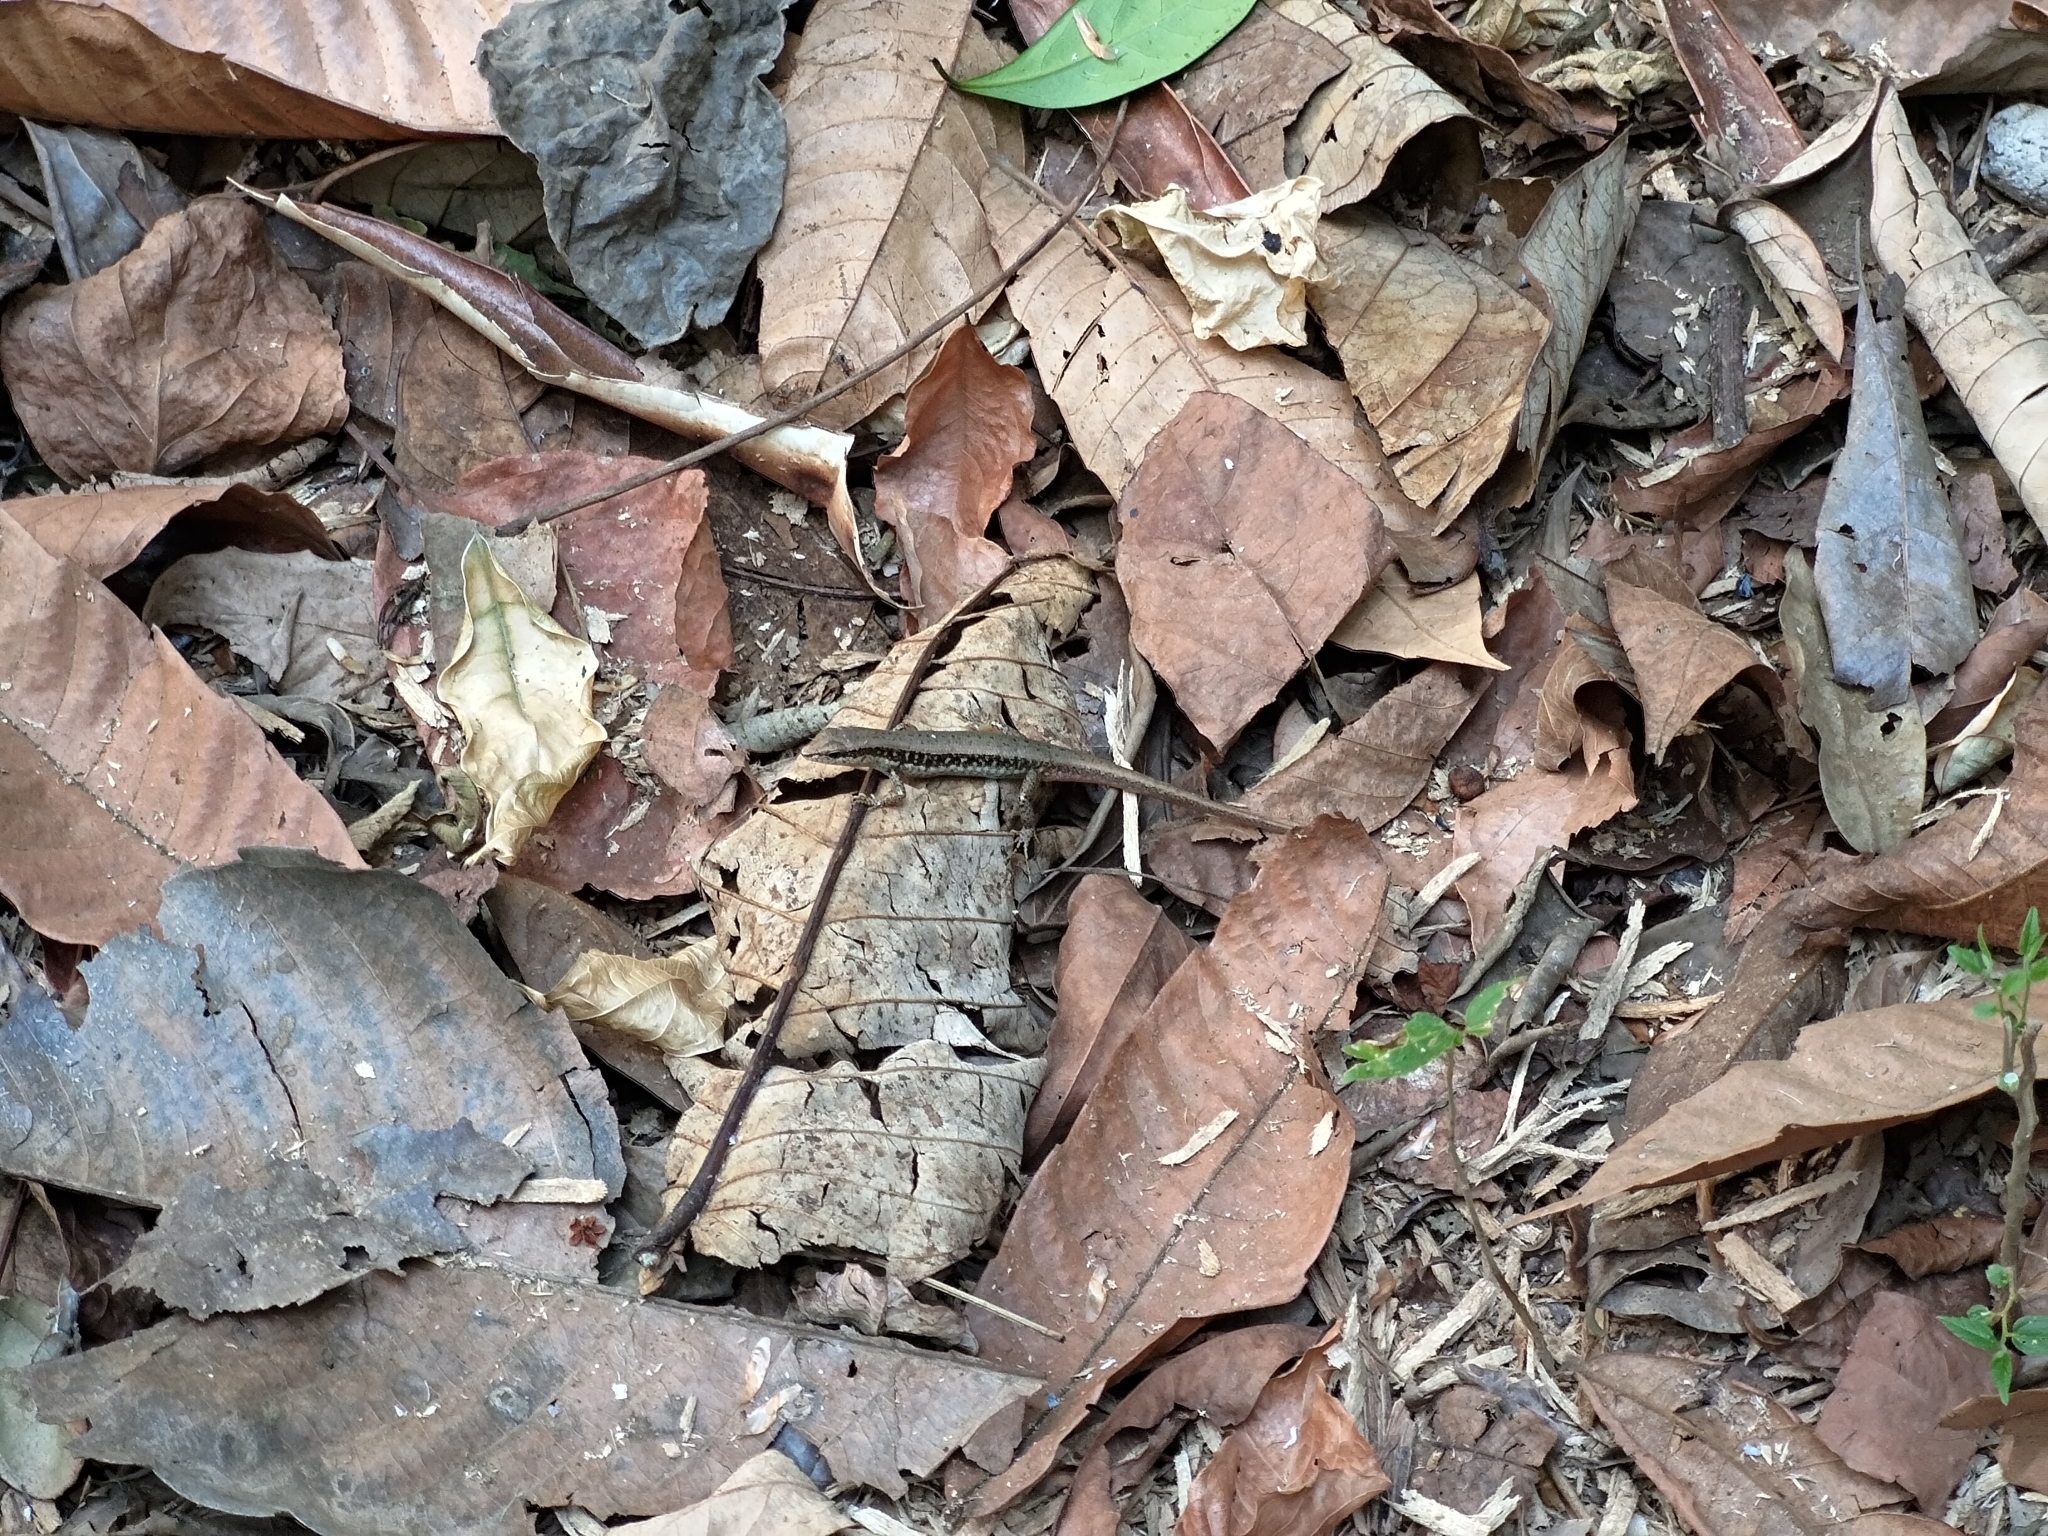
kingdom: Animalia
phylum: Chordata
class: Squamata
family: Scincidae
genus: Sphenomorphus
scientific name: Sphenomorphus maculatus
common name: Maculated forest skink
